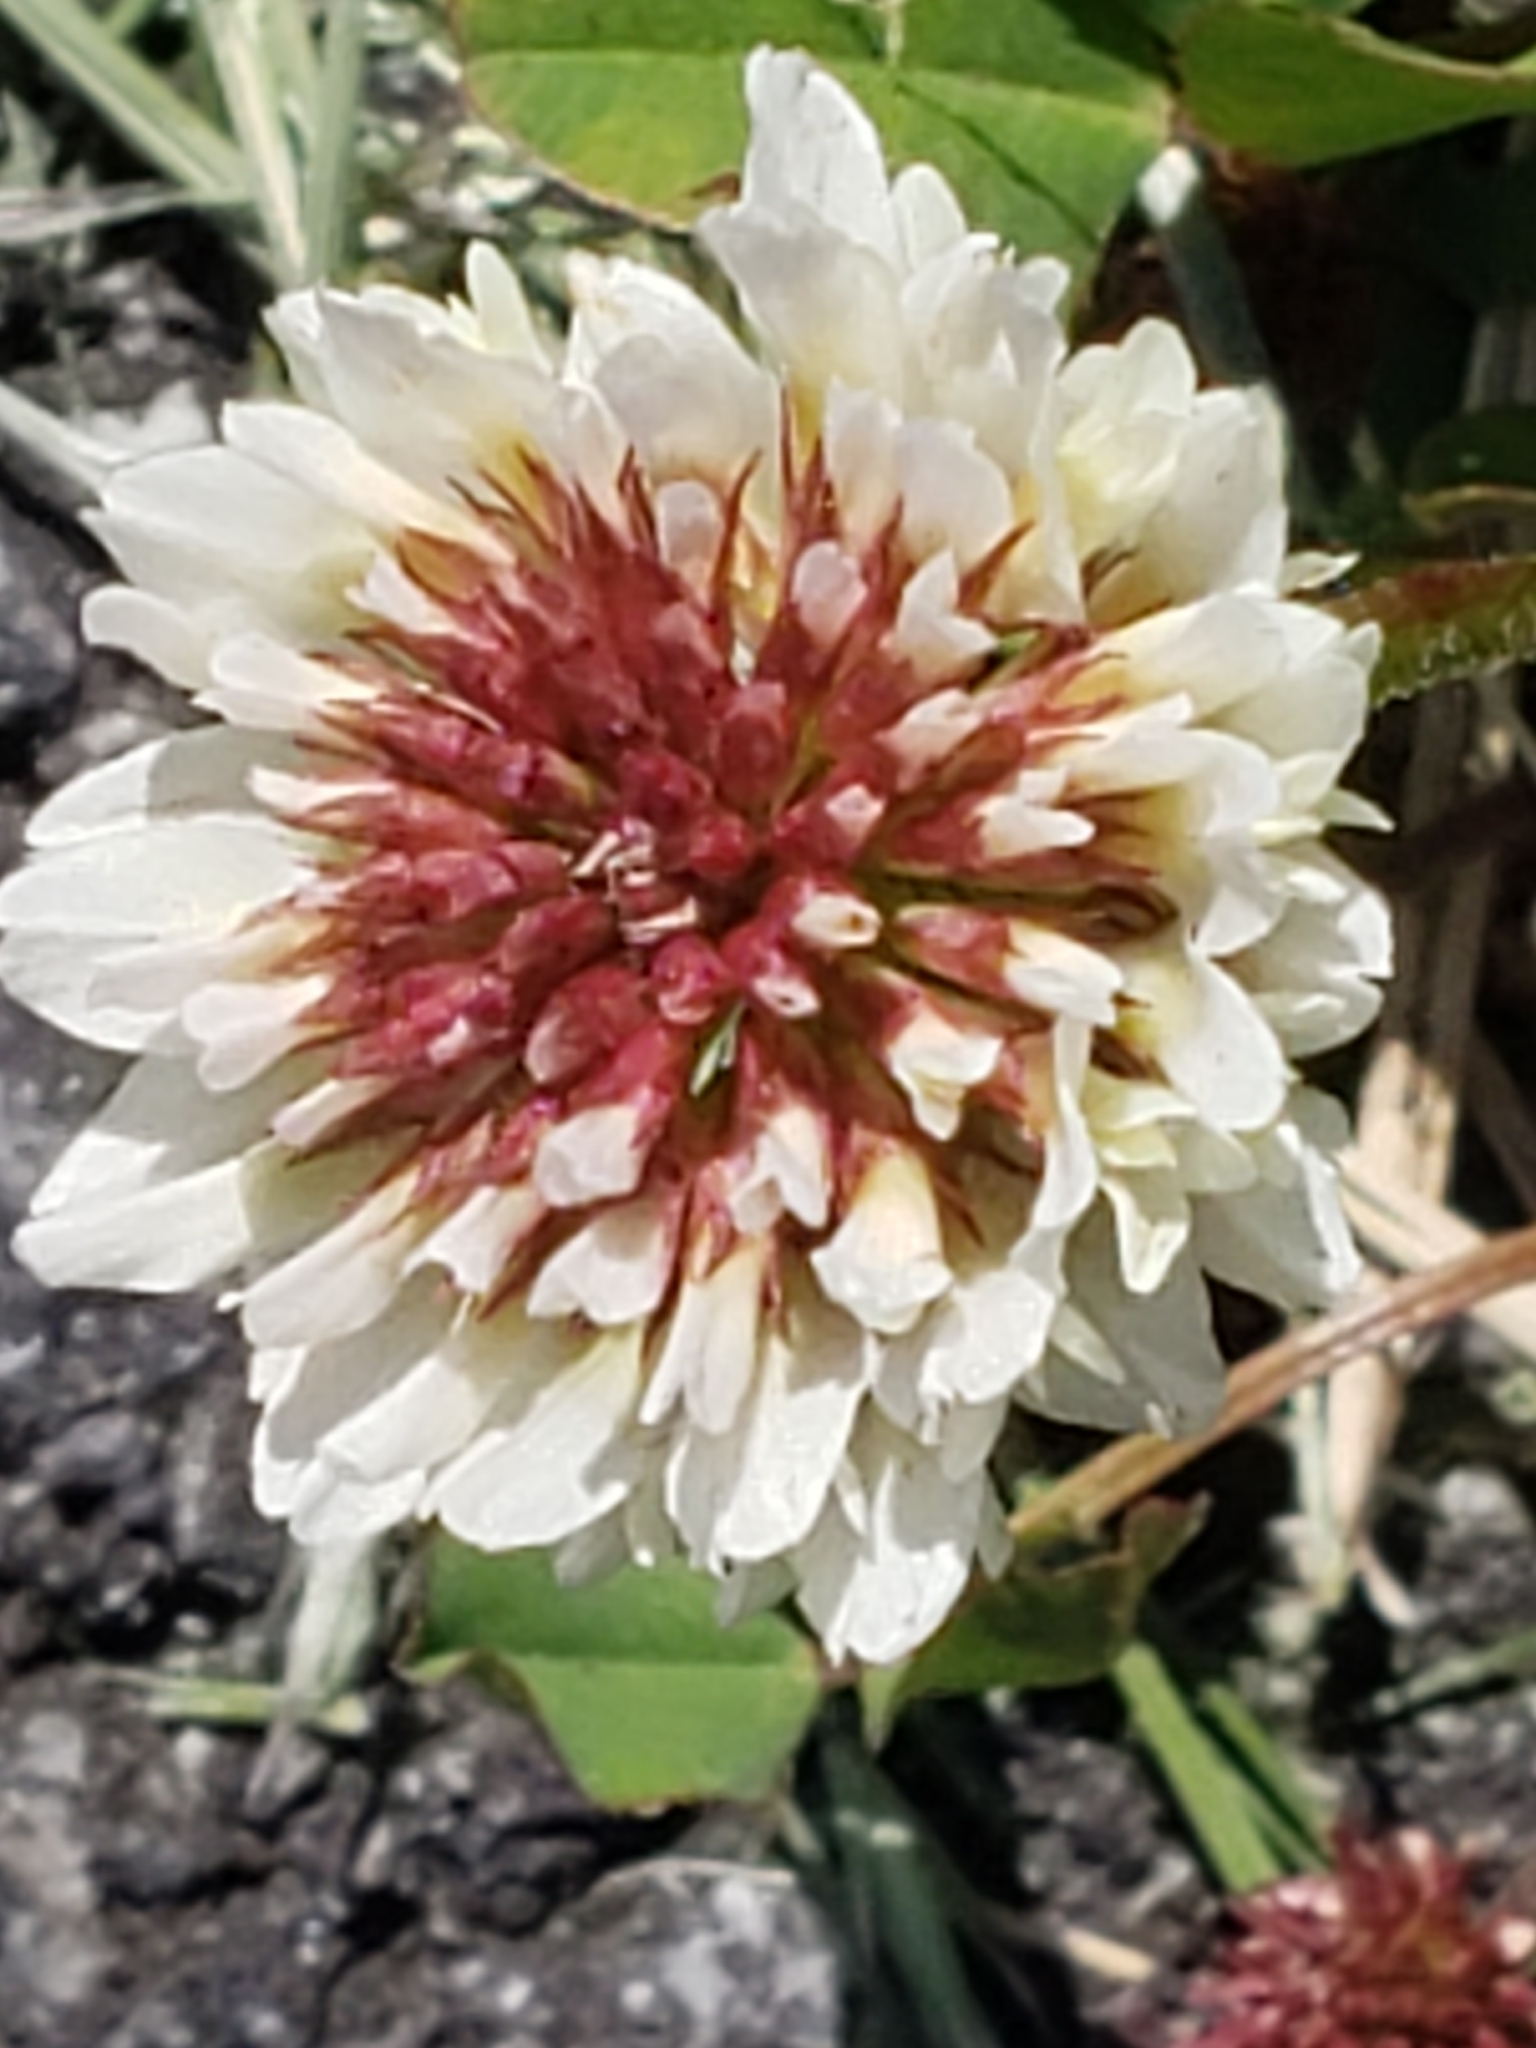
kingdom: Plantae
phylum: Tracheophyta
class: Magnoliopsida
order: Fabales
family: Fabaceae
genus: Trifolium
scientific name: Trifolium repens
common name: White clover
